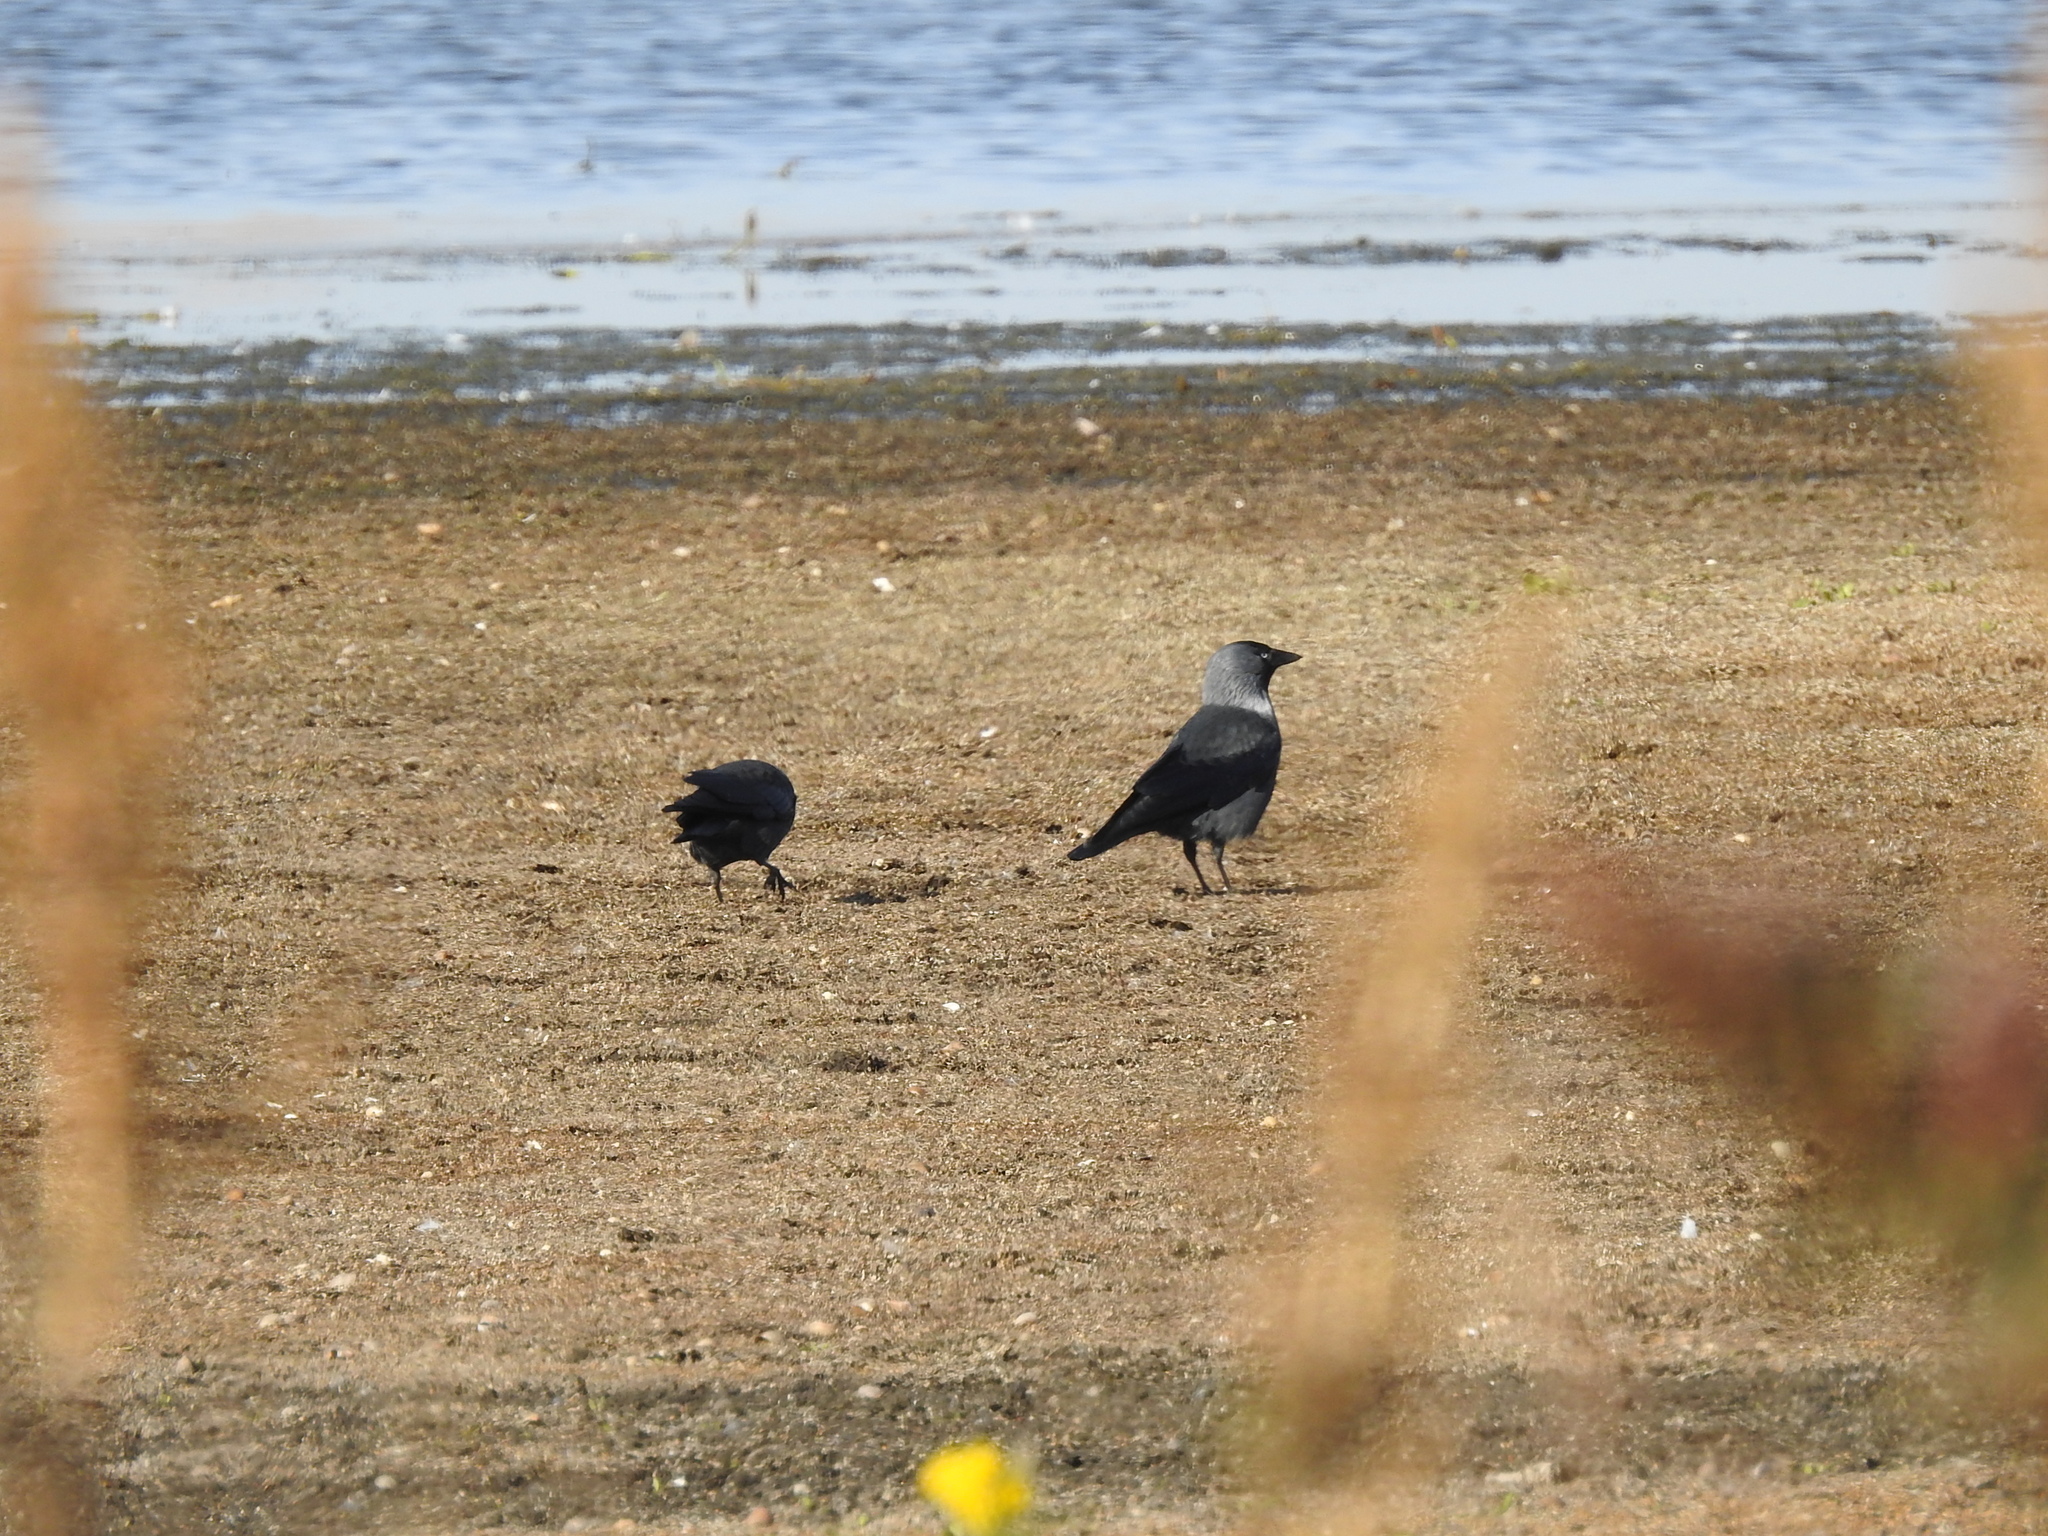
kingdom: Animalia
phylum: Chordata
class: Aves
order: Passeriformes
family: Corvidae
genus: Coloeus
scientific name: Coloeus monedula
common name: Western jackdaw
